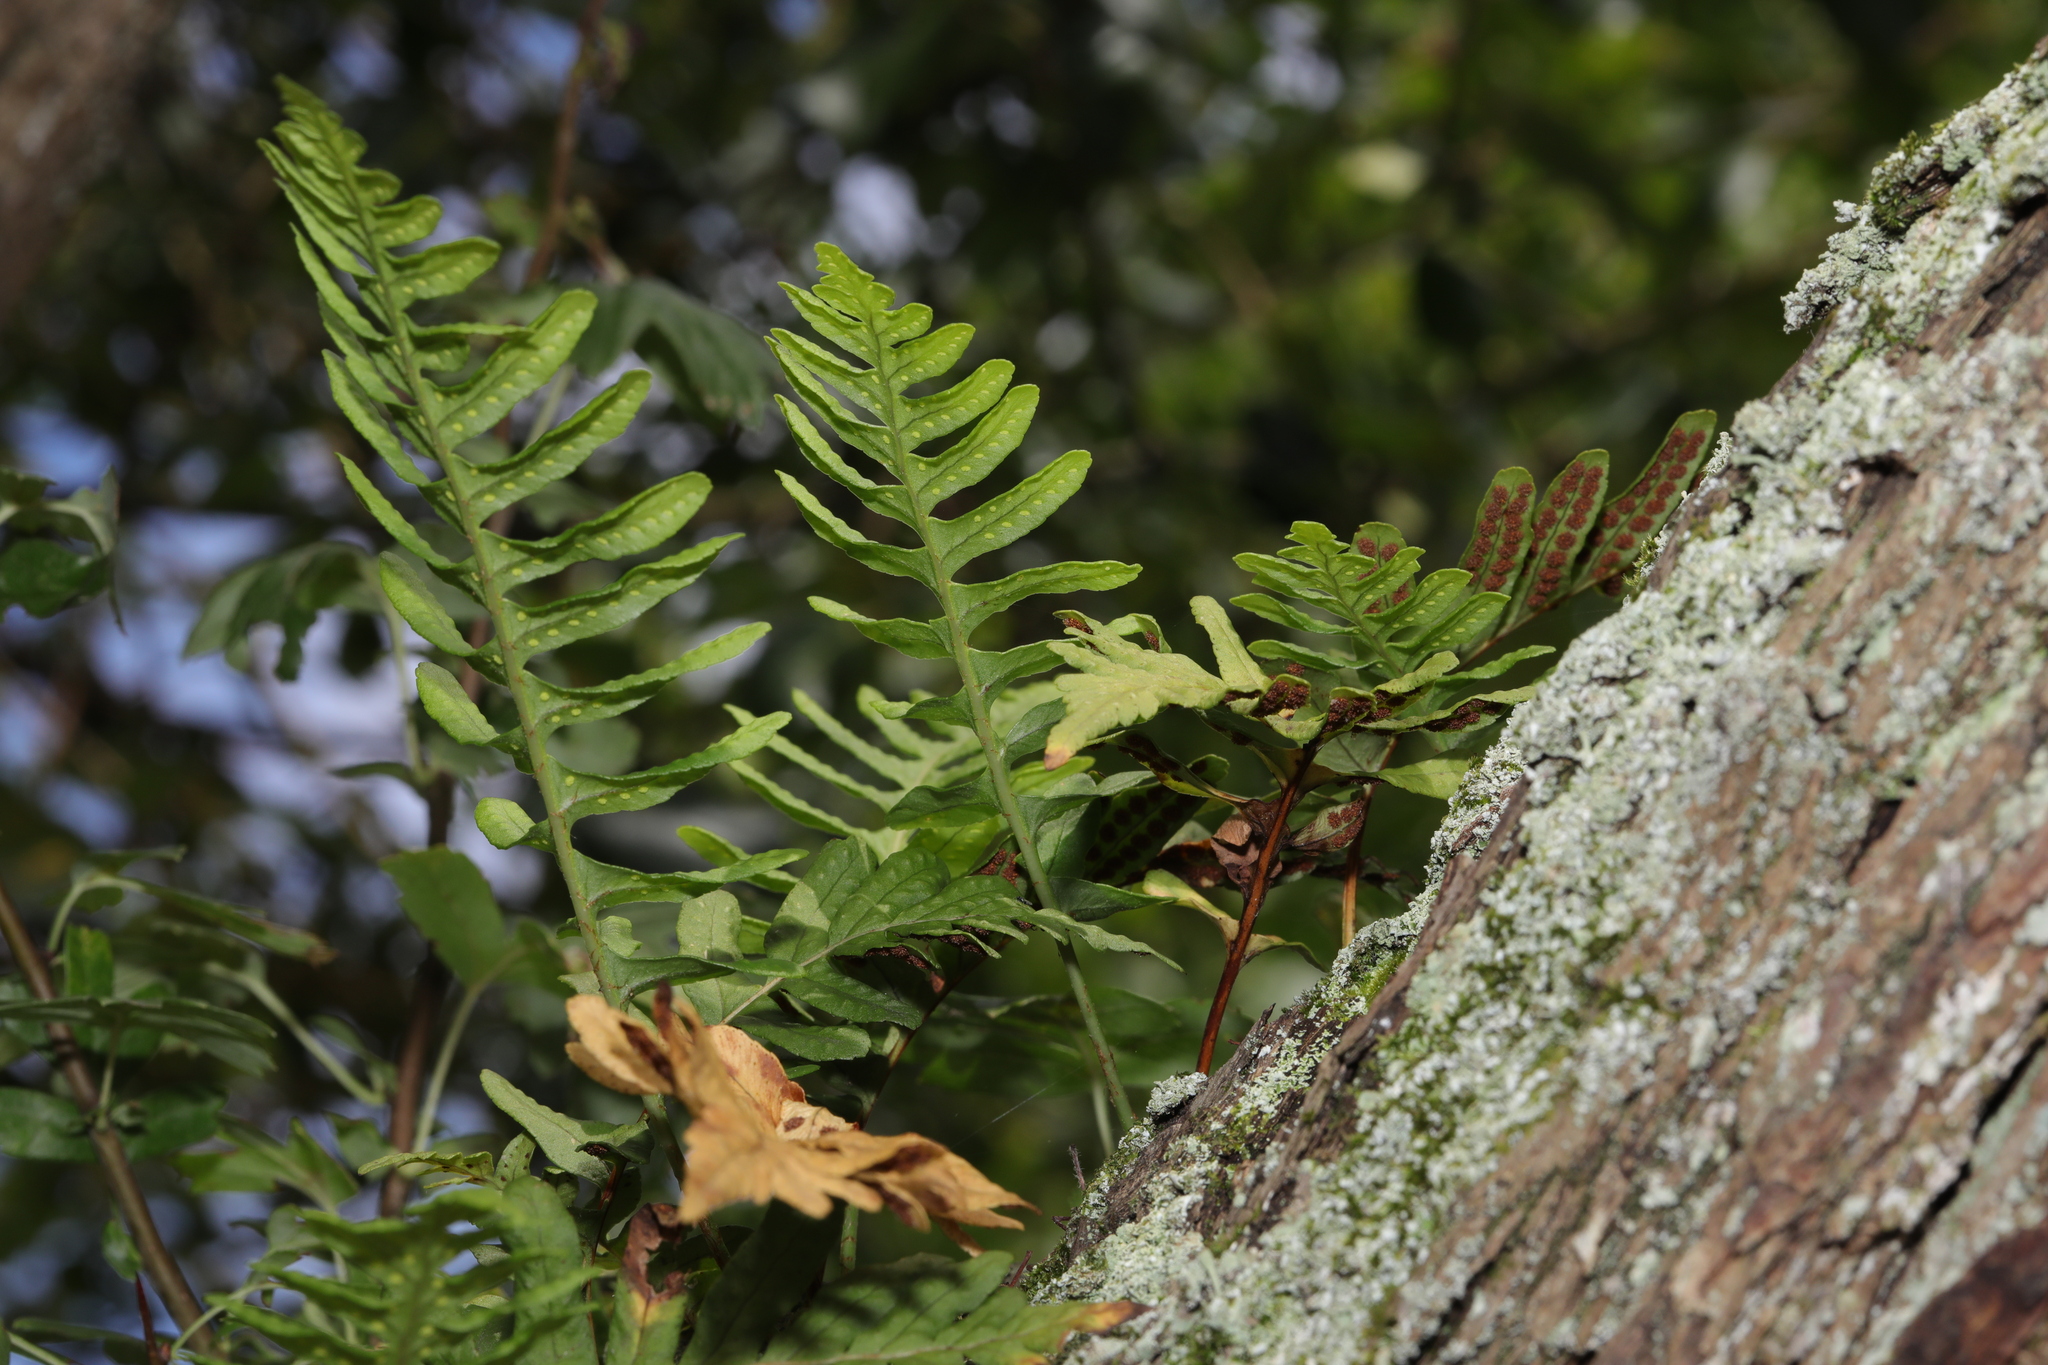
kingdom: Plantae
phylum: Tracheophyta
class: Polypodiopsida
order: Polypodiales
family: Polypodiaceae
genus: Polypodium
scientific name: Polypodium vulgare
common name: Common polypody
